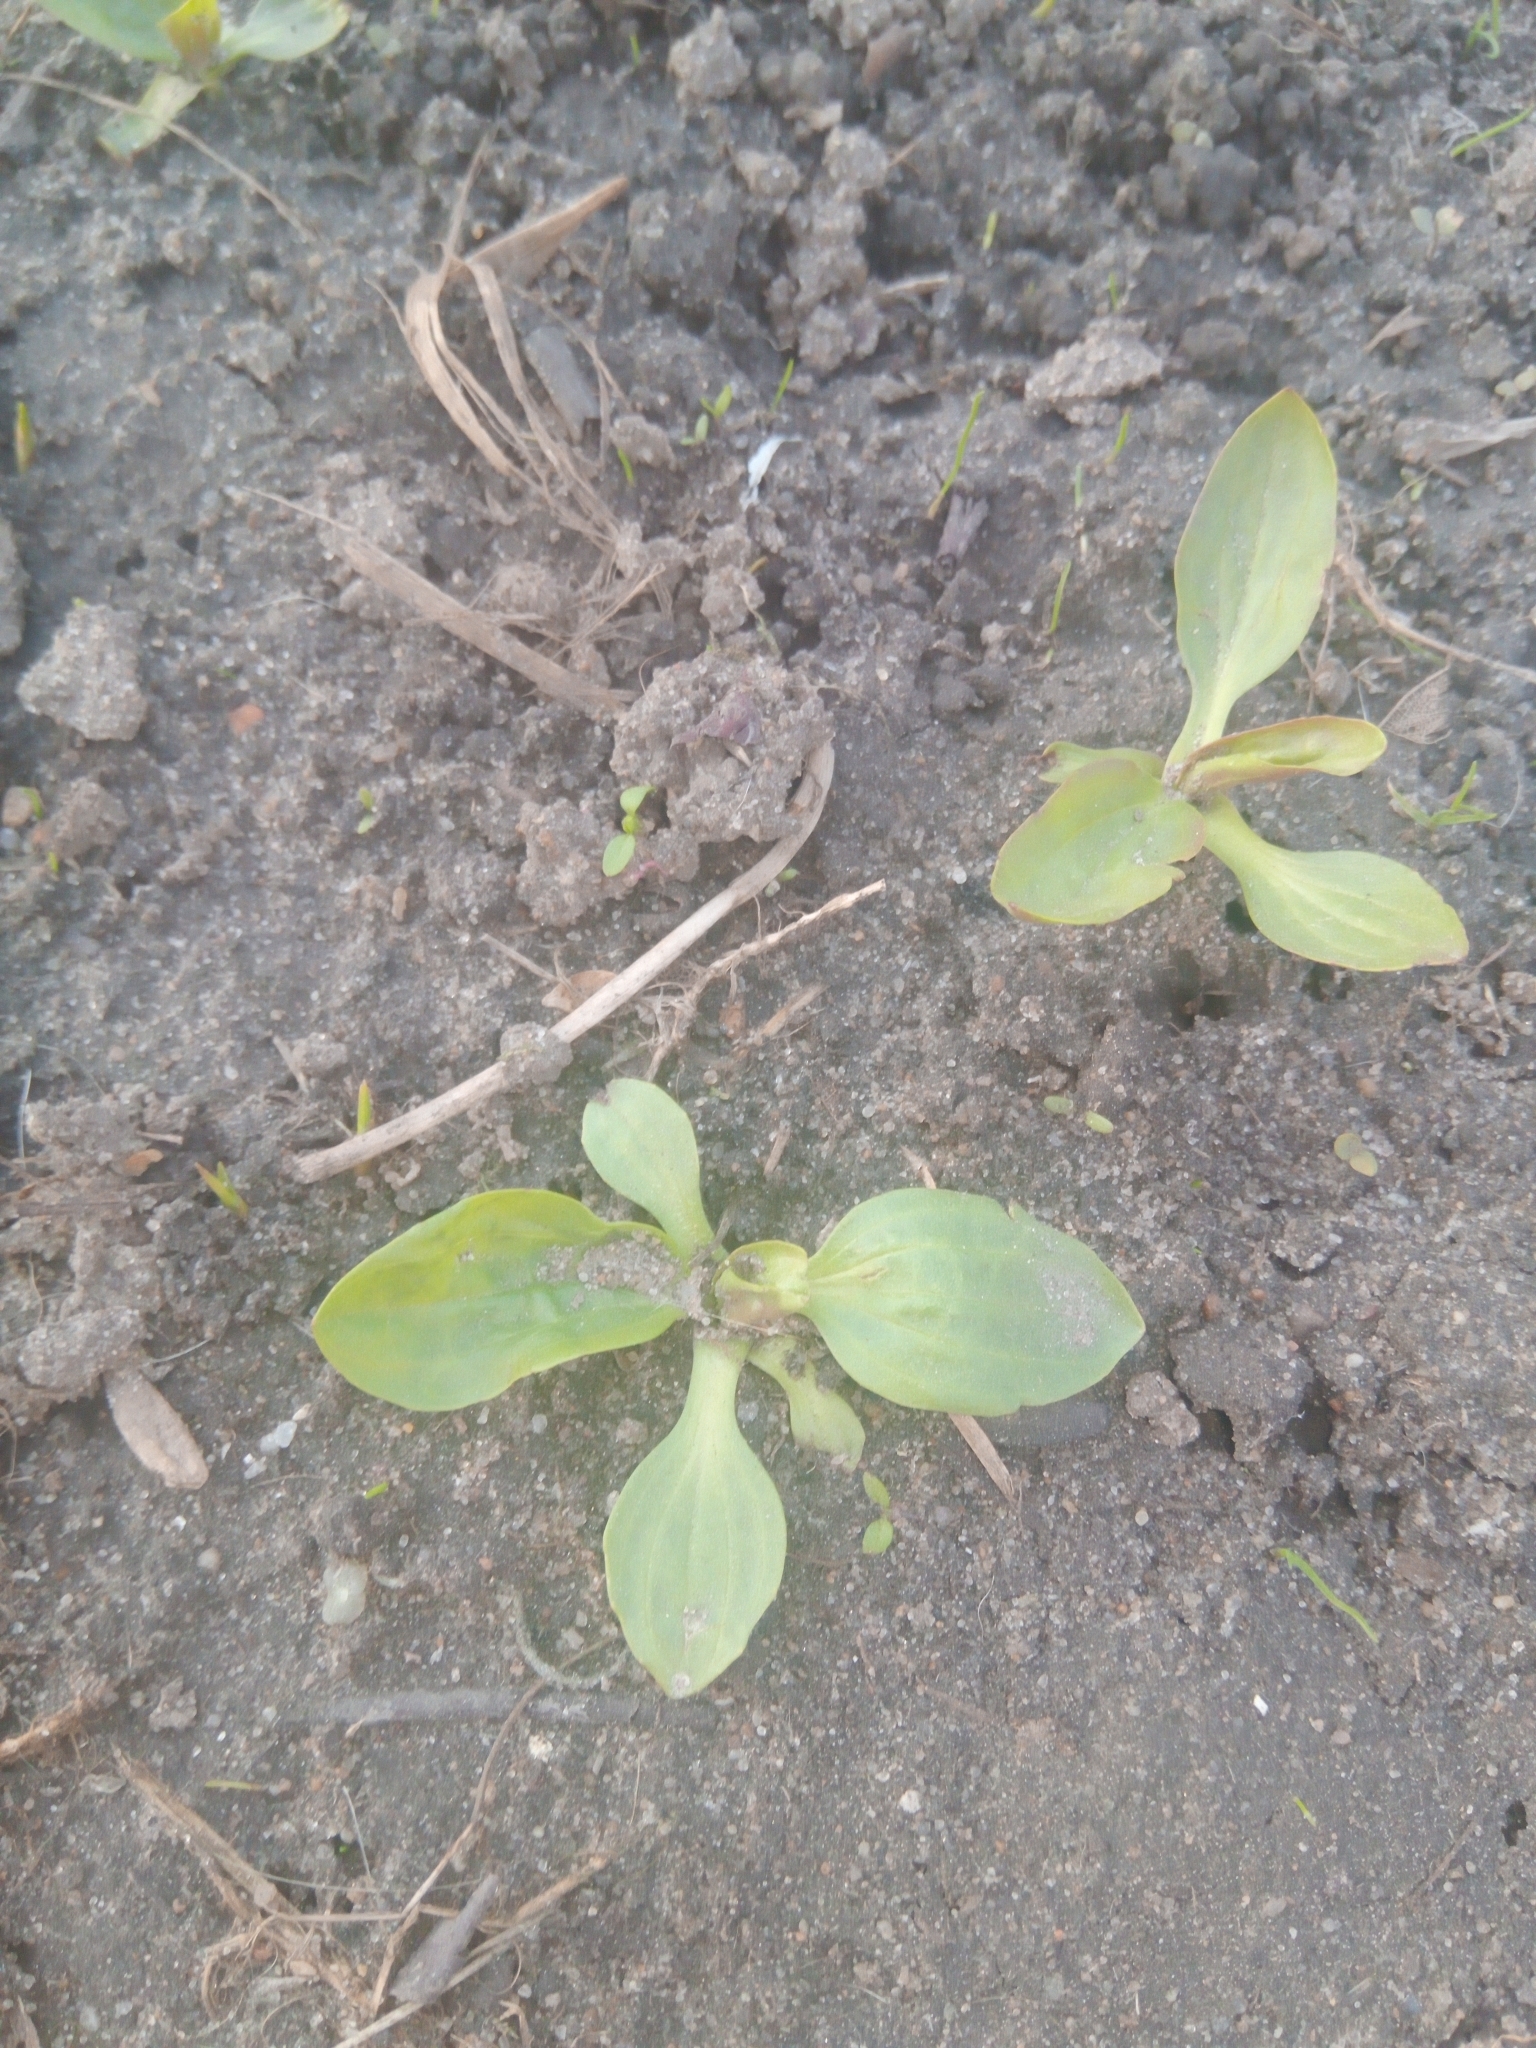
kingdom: Plantae
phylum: Tracheophyta
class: Magnoliopsida
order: Lamiales
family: Plantaginaceae
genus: Plantago
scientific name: Plantago major
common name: Common plantain
